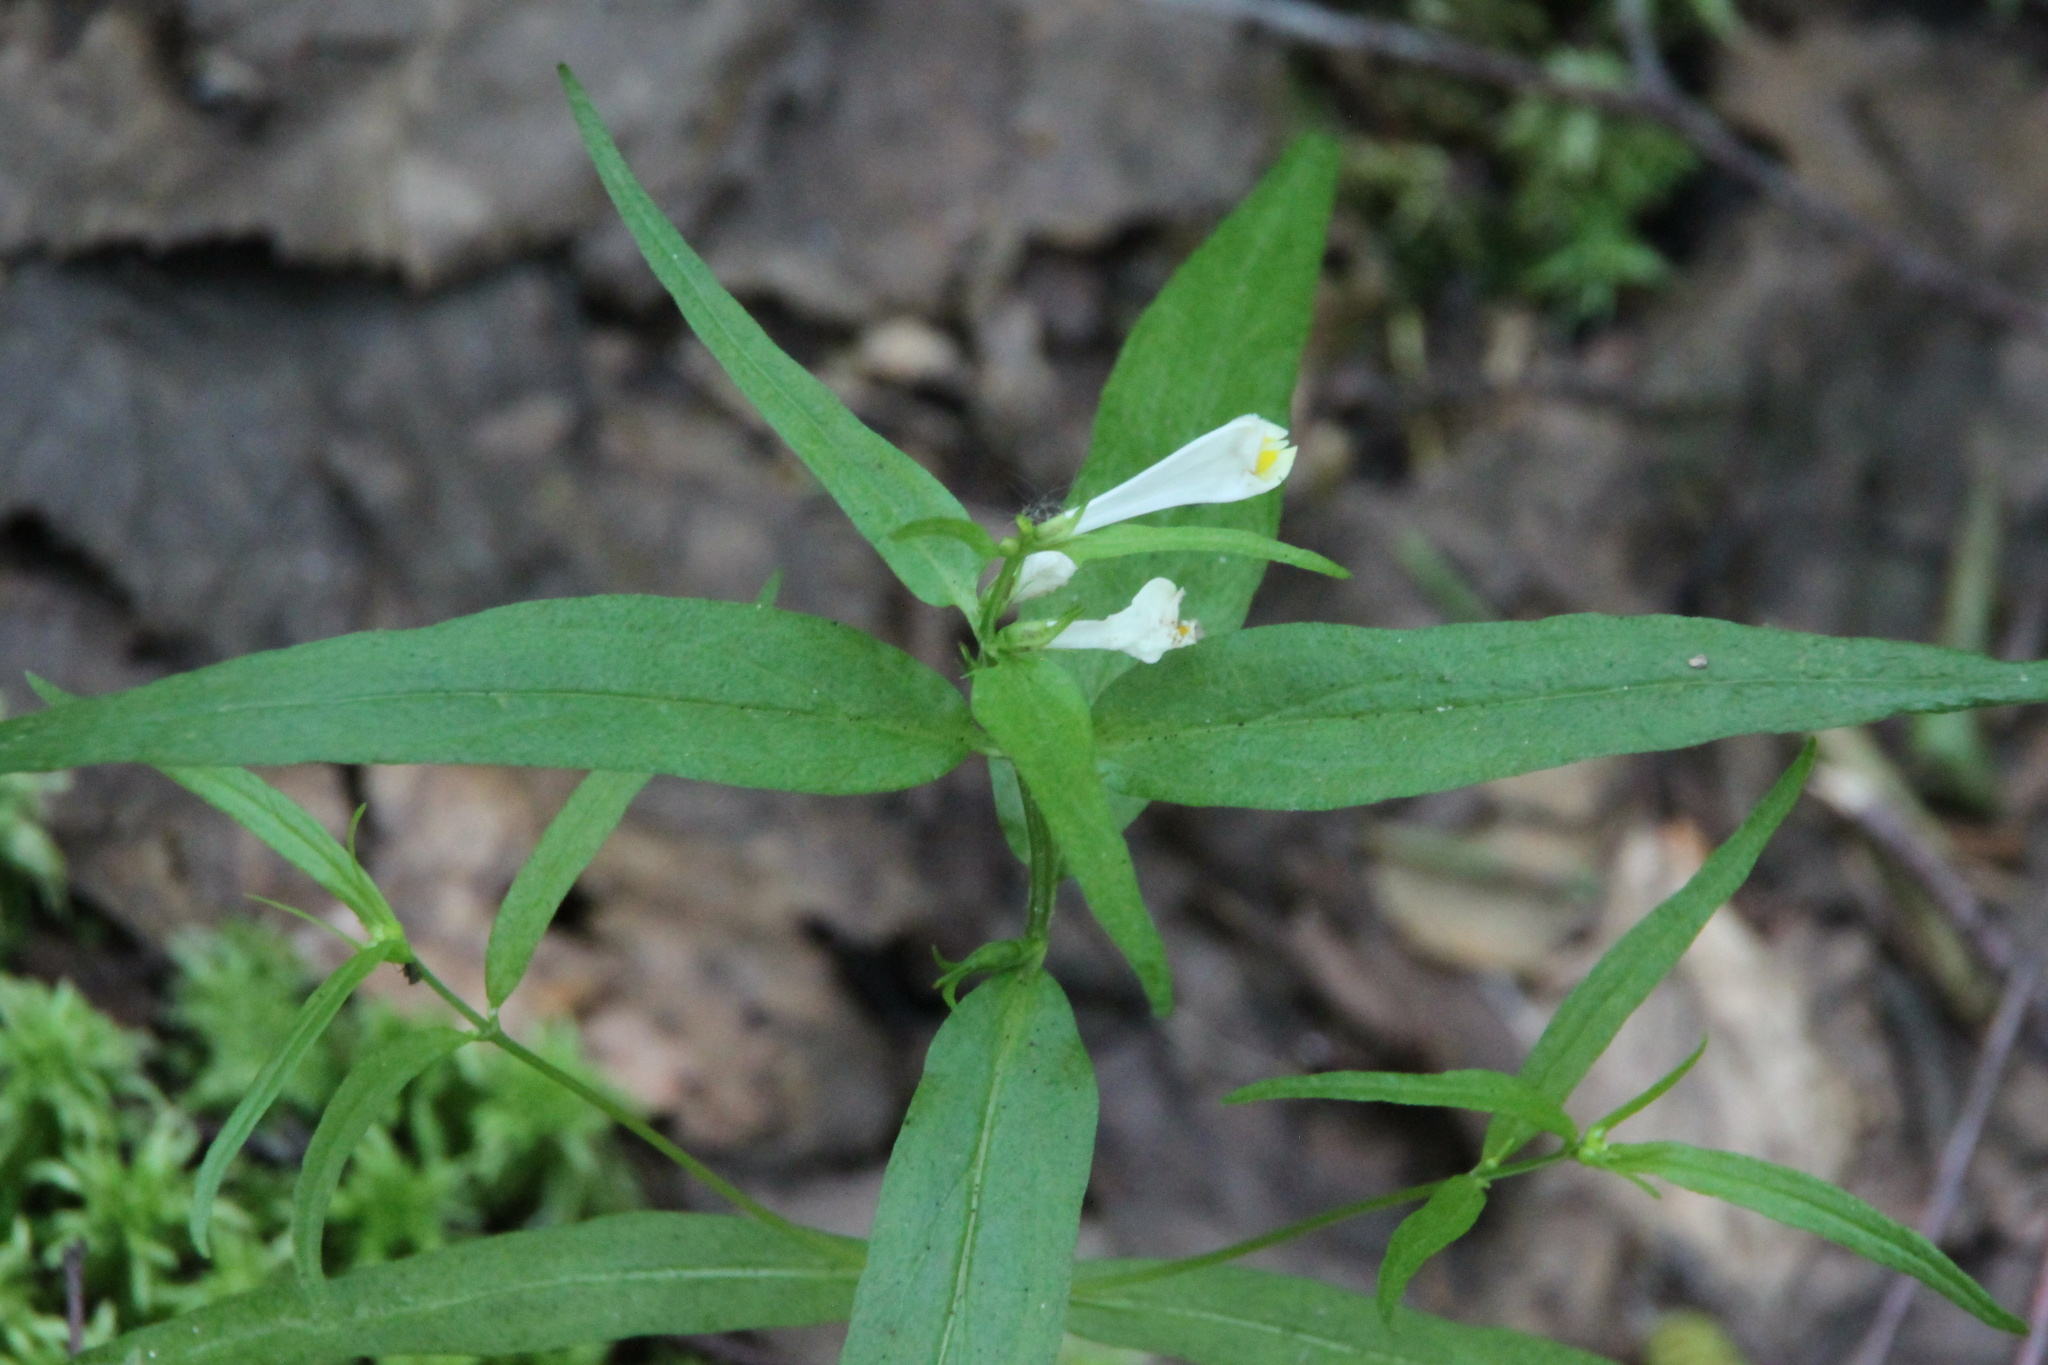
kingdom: Plantae
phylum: Tracheophyta
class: Magnoliopsida
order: Lamiales
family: Orobanchaceae
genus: Melampyrum
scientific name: Melampyrum pratense
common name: Common cow-wheat
